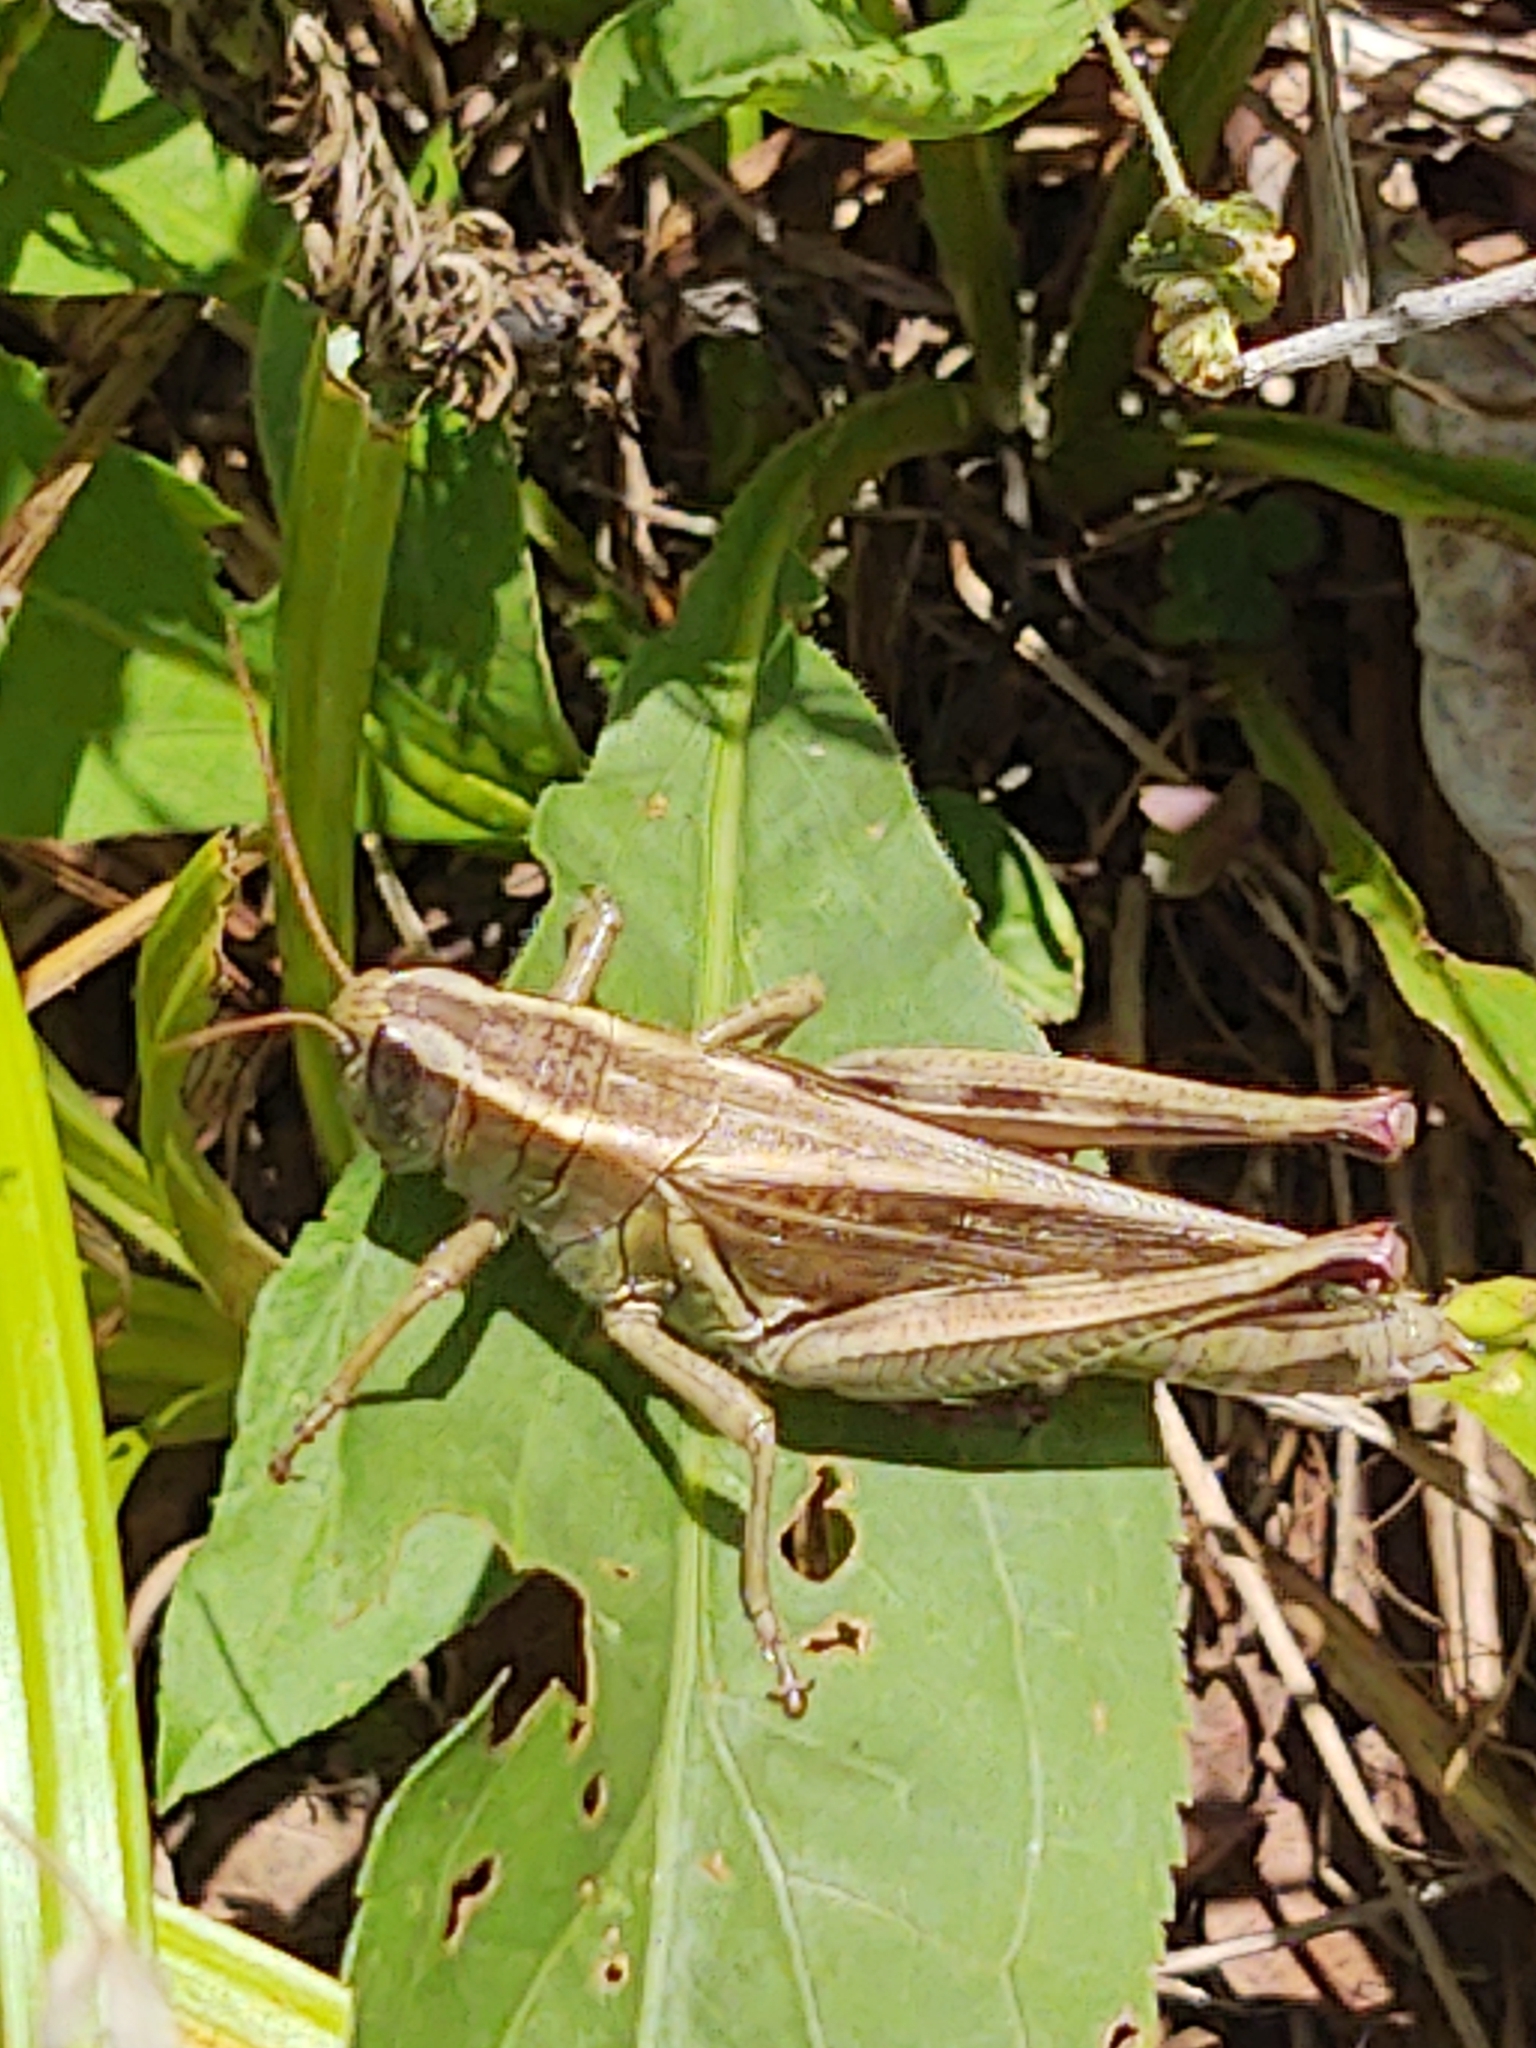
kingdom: Animalia
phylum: Arthropoda
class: Insecta
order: Orthoptera
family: Acrididae
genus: Melanoplus
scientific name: Melanoplus bivittatus
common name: Two-striped grasshopper
